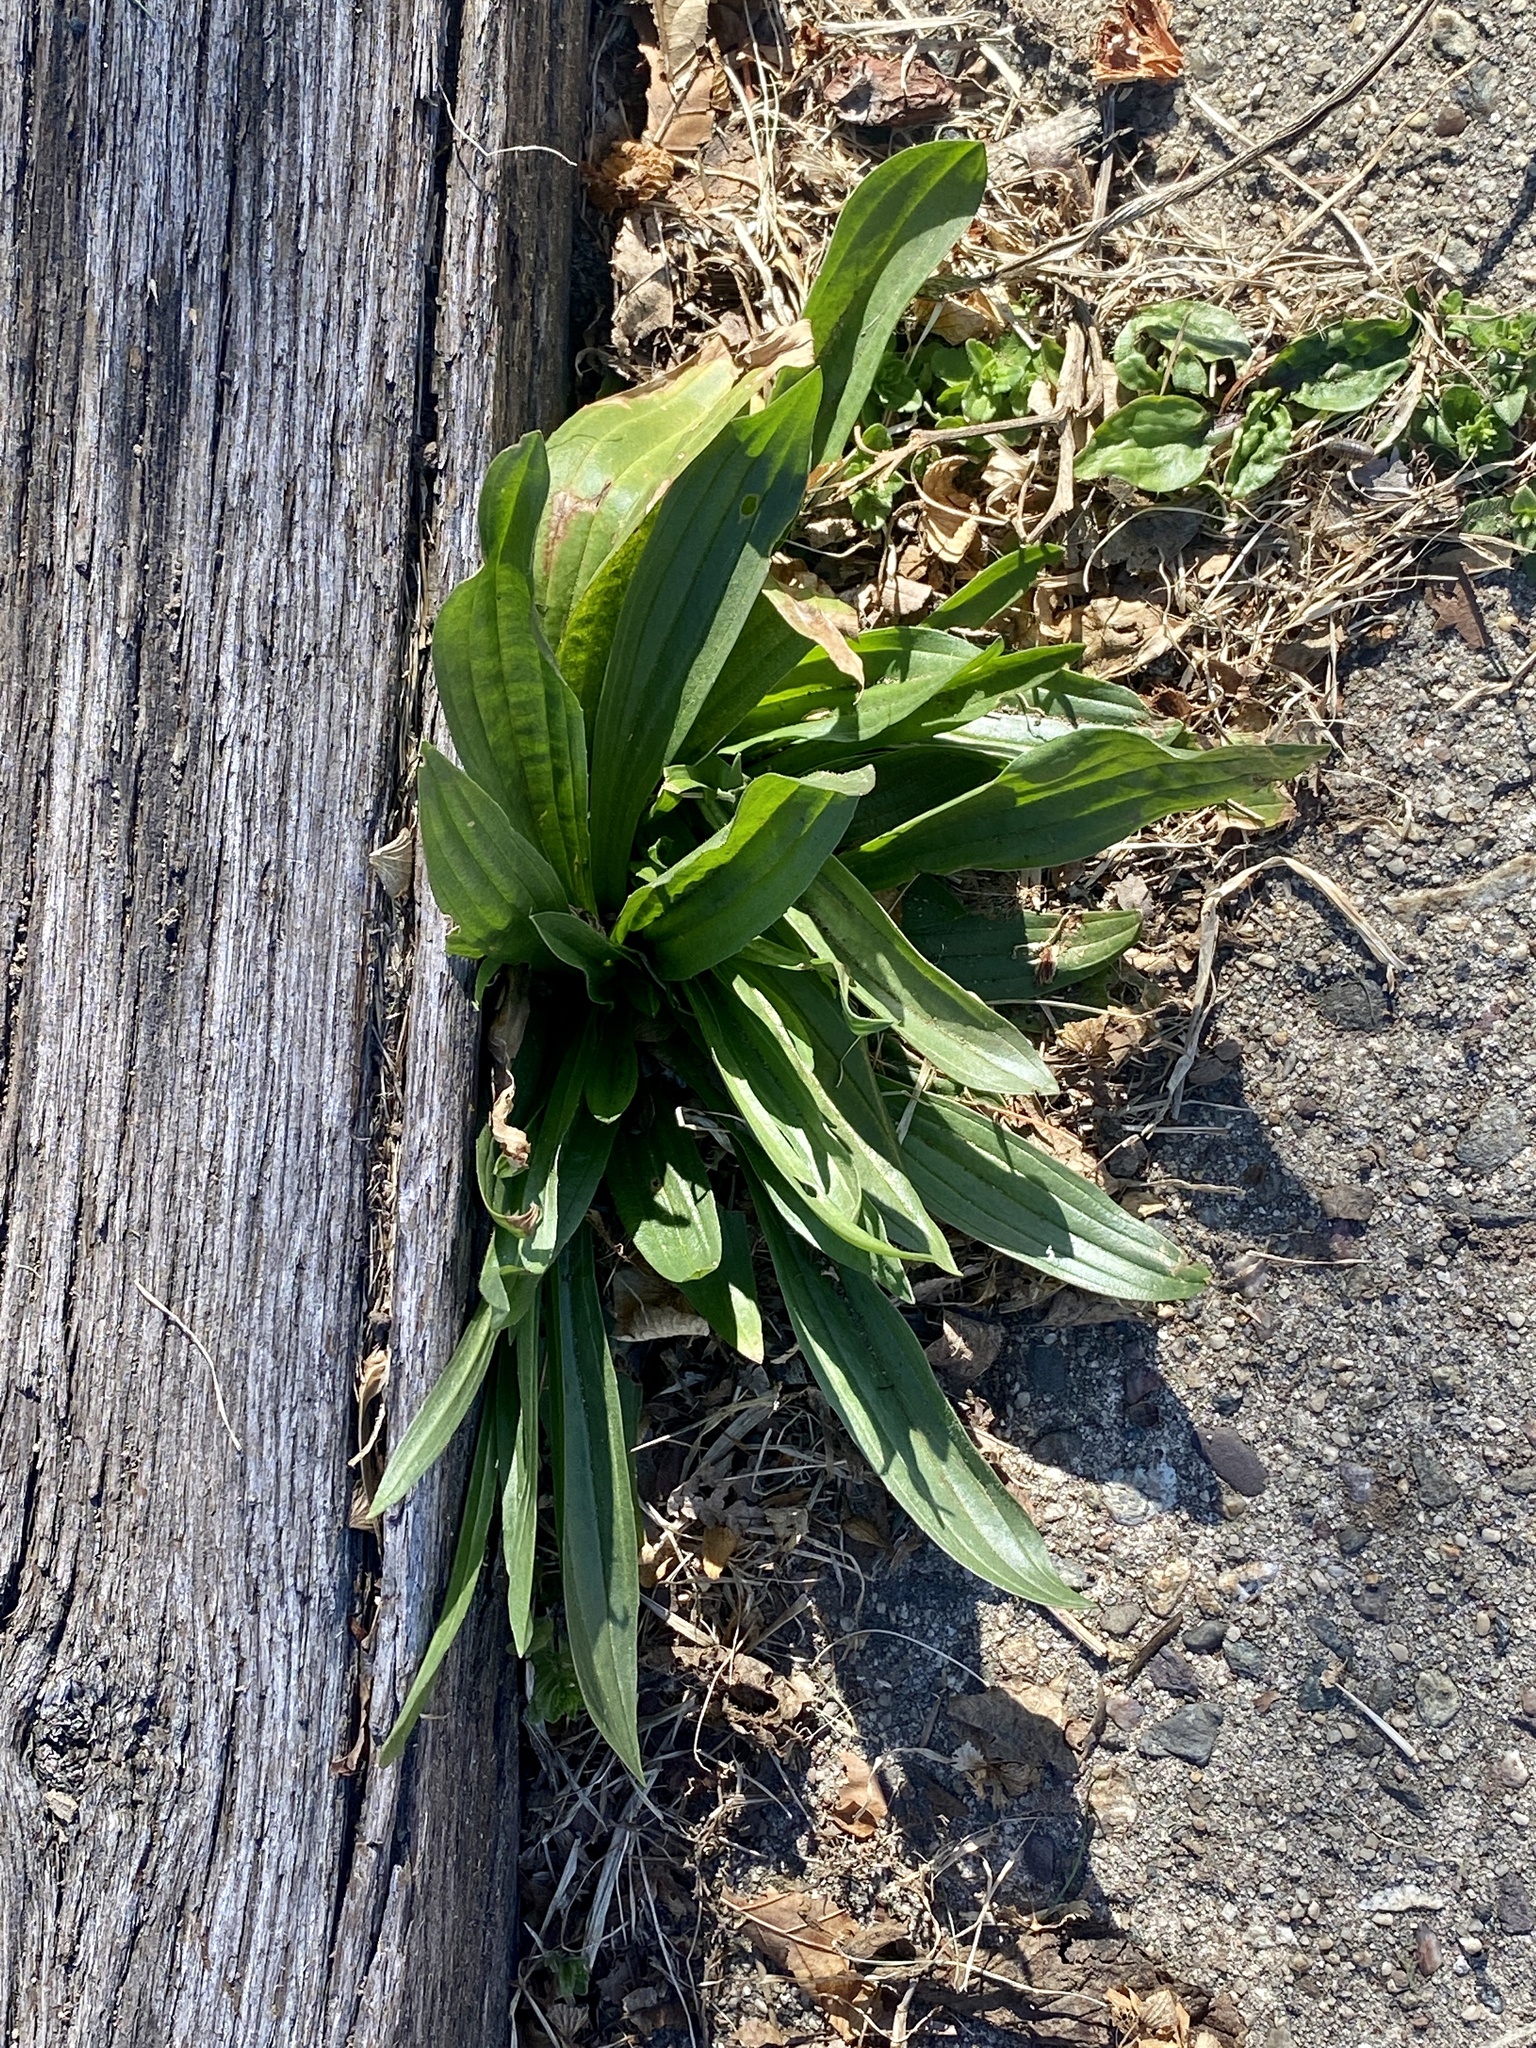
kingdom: Plantae
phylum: Tracheophyta
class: Magnoliopsida
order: Lamiales
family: Plantaginaceae
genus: Plantago
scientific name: Plantago lanceolata
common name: Ribwort plantain
